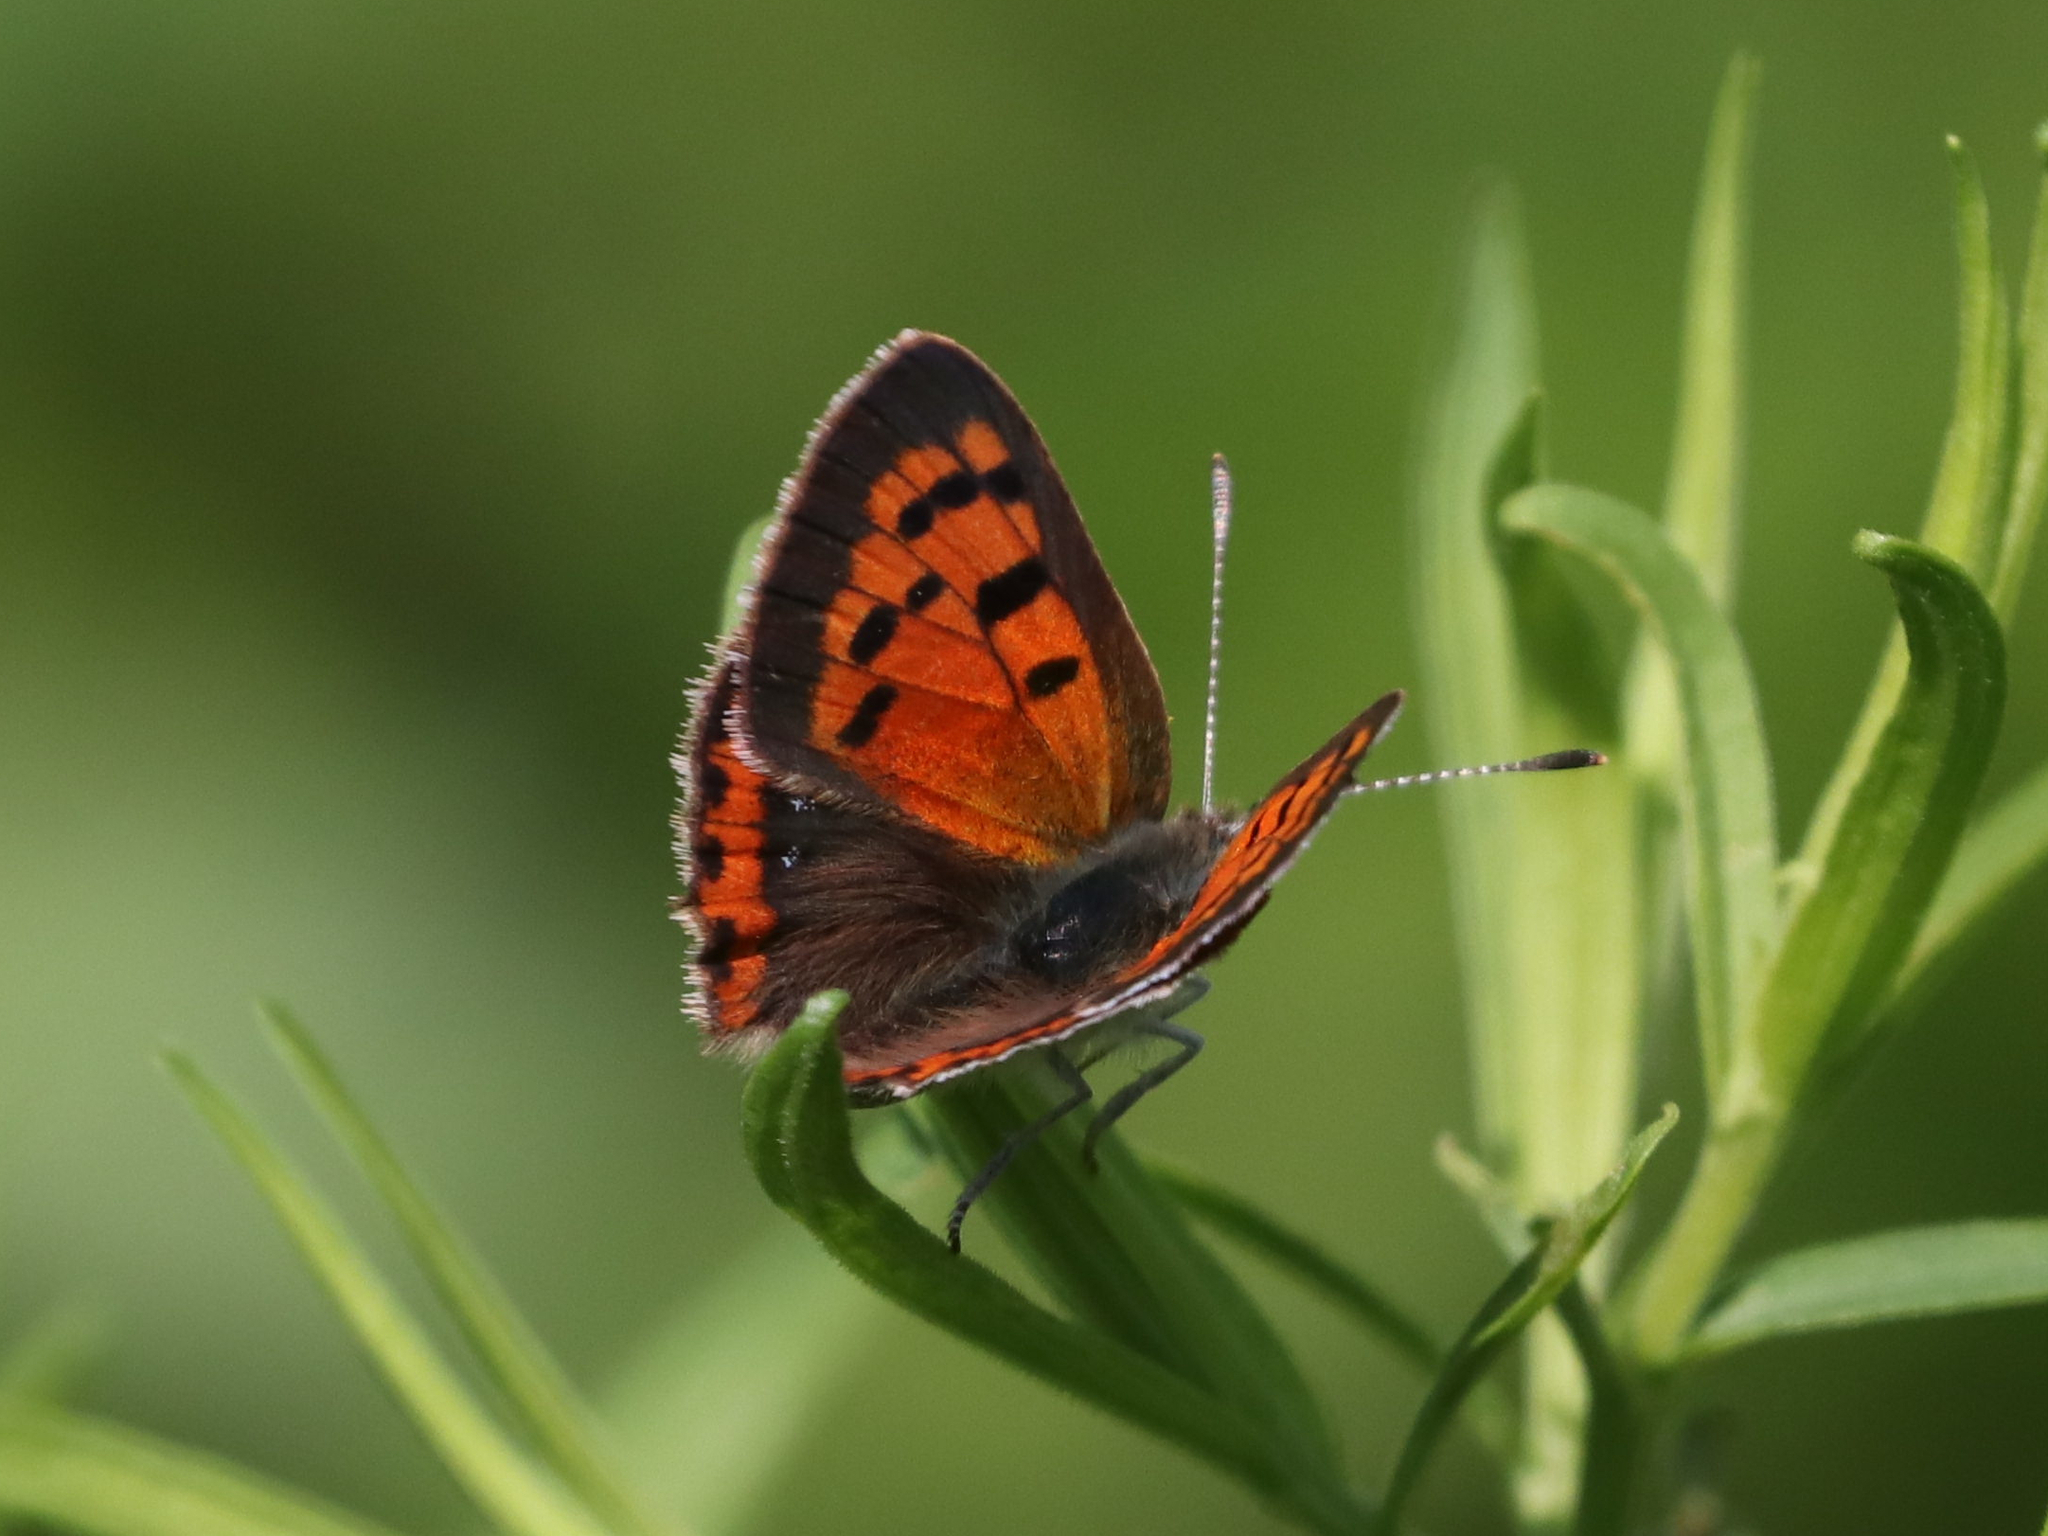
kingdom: Animalia
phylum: Arthropoda
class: Insecta
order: Lepidoptera
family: Lycaenidae
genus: Lycaena
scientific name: Lycaena hypophlaeas
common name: American copper
